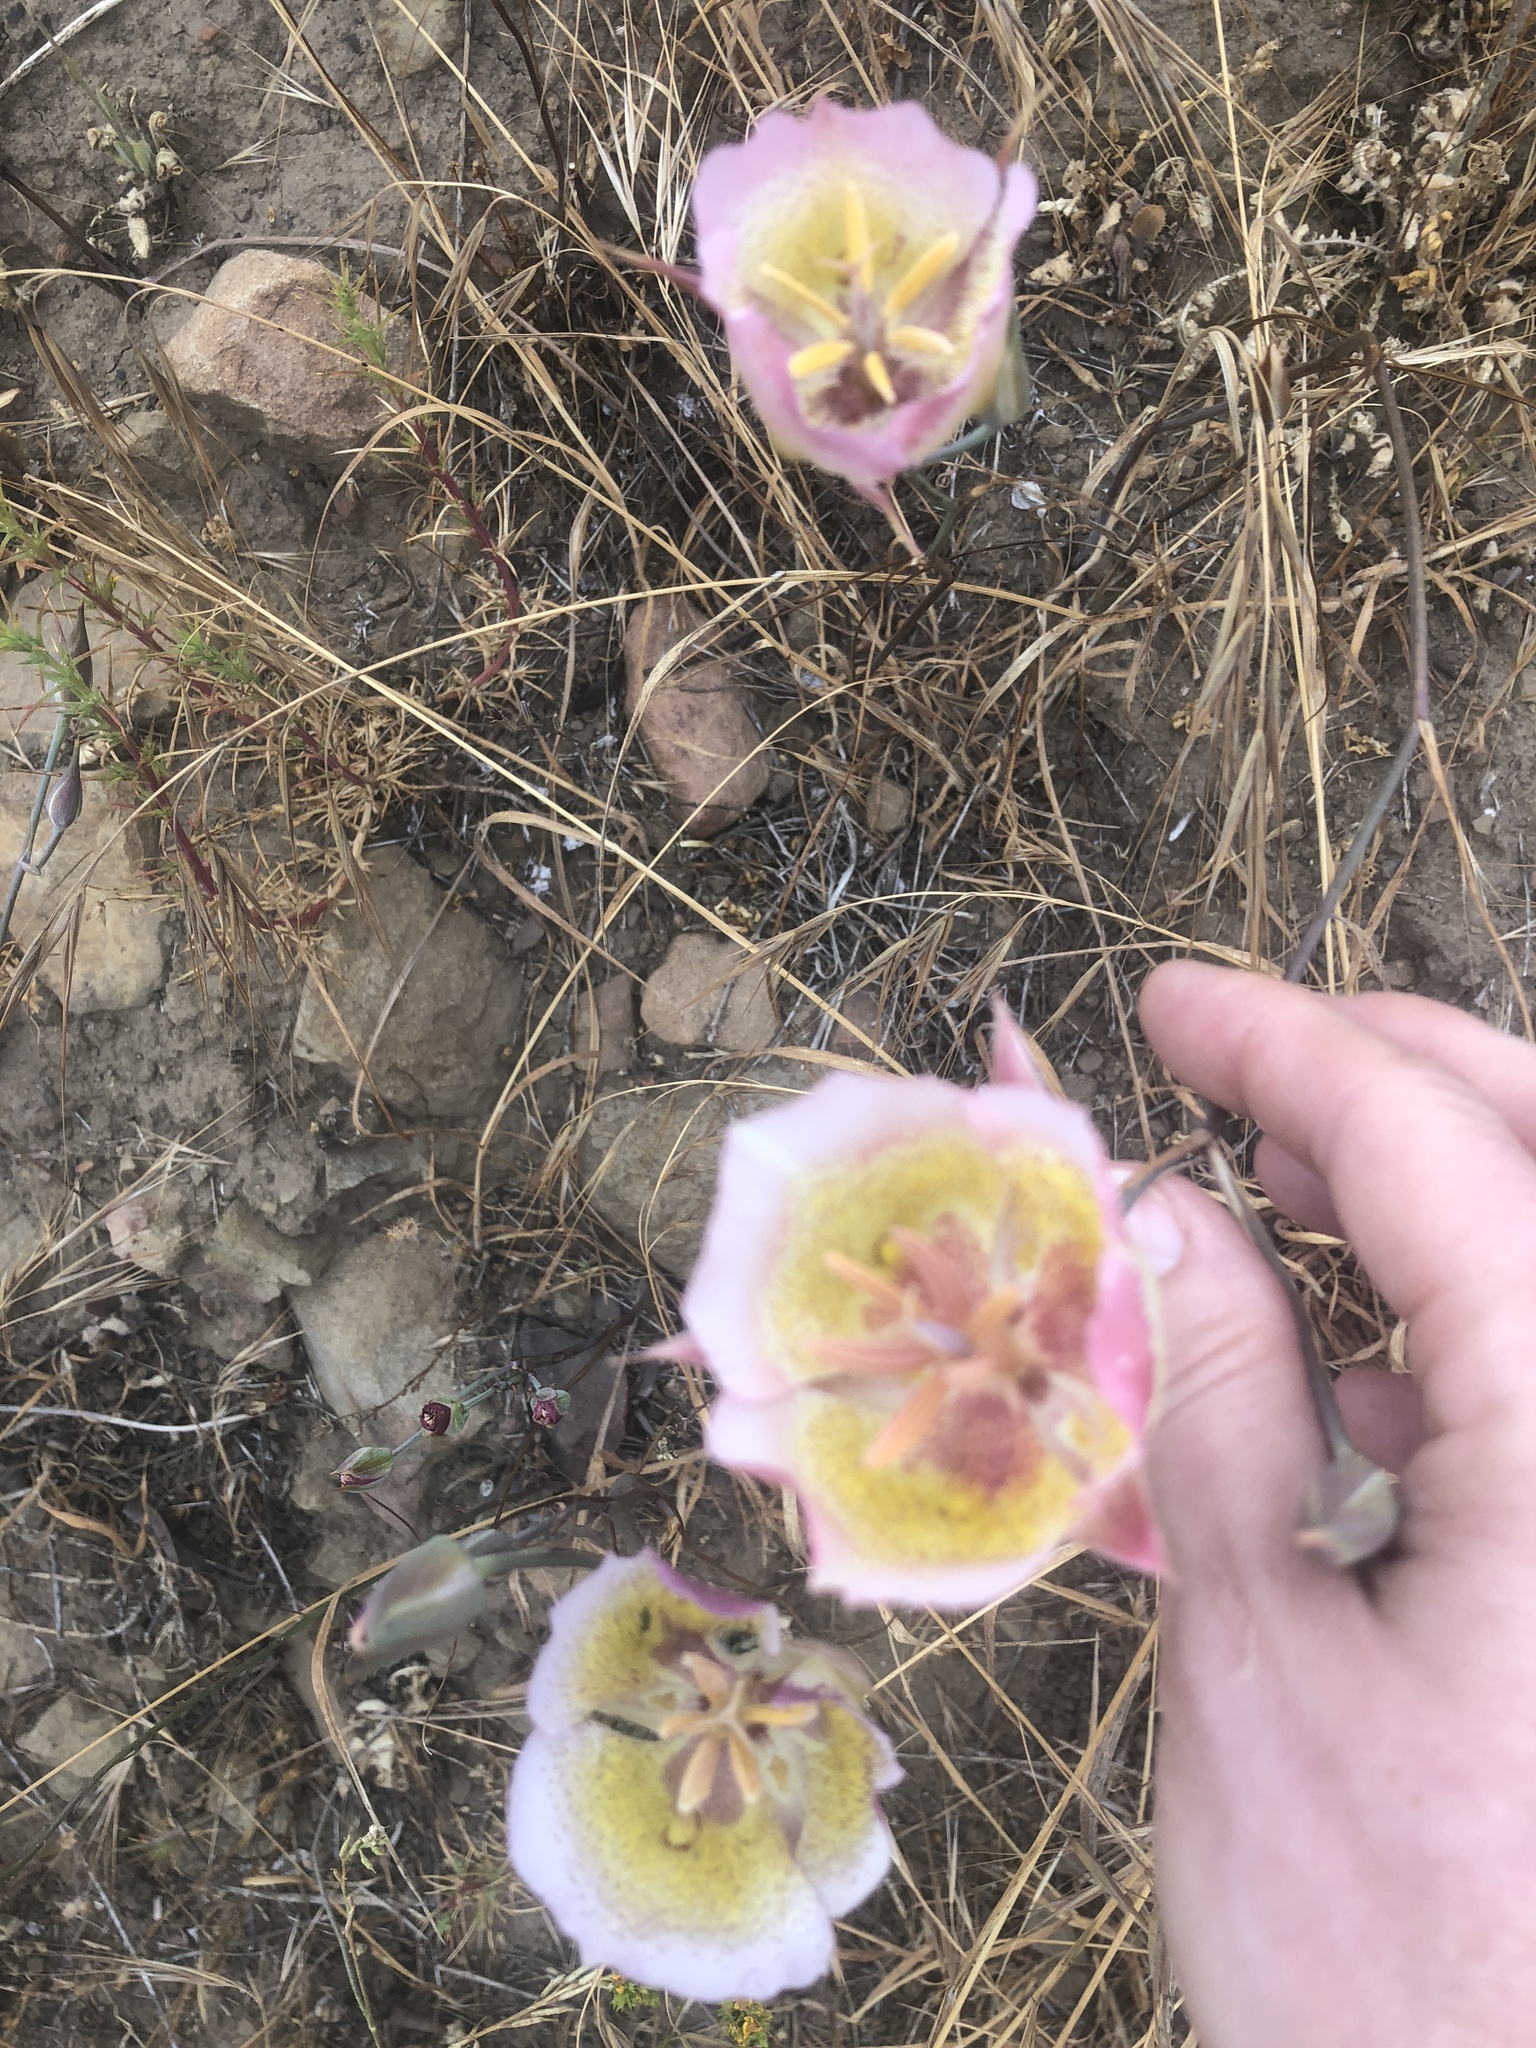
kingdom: Plantae
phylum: Tracheophyta
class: Liliopsida
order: Liliales
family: Liliaceae
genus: Calochortus
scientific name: Calochortus plummerae
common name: Plummer's mariposa-lily
